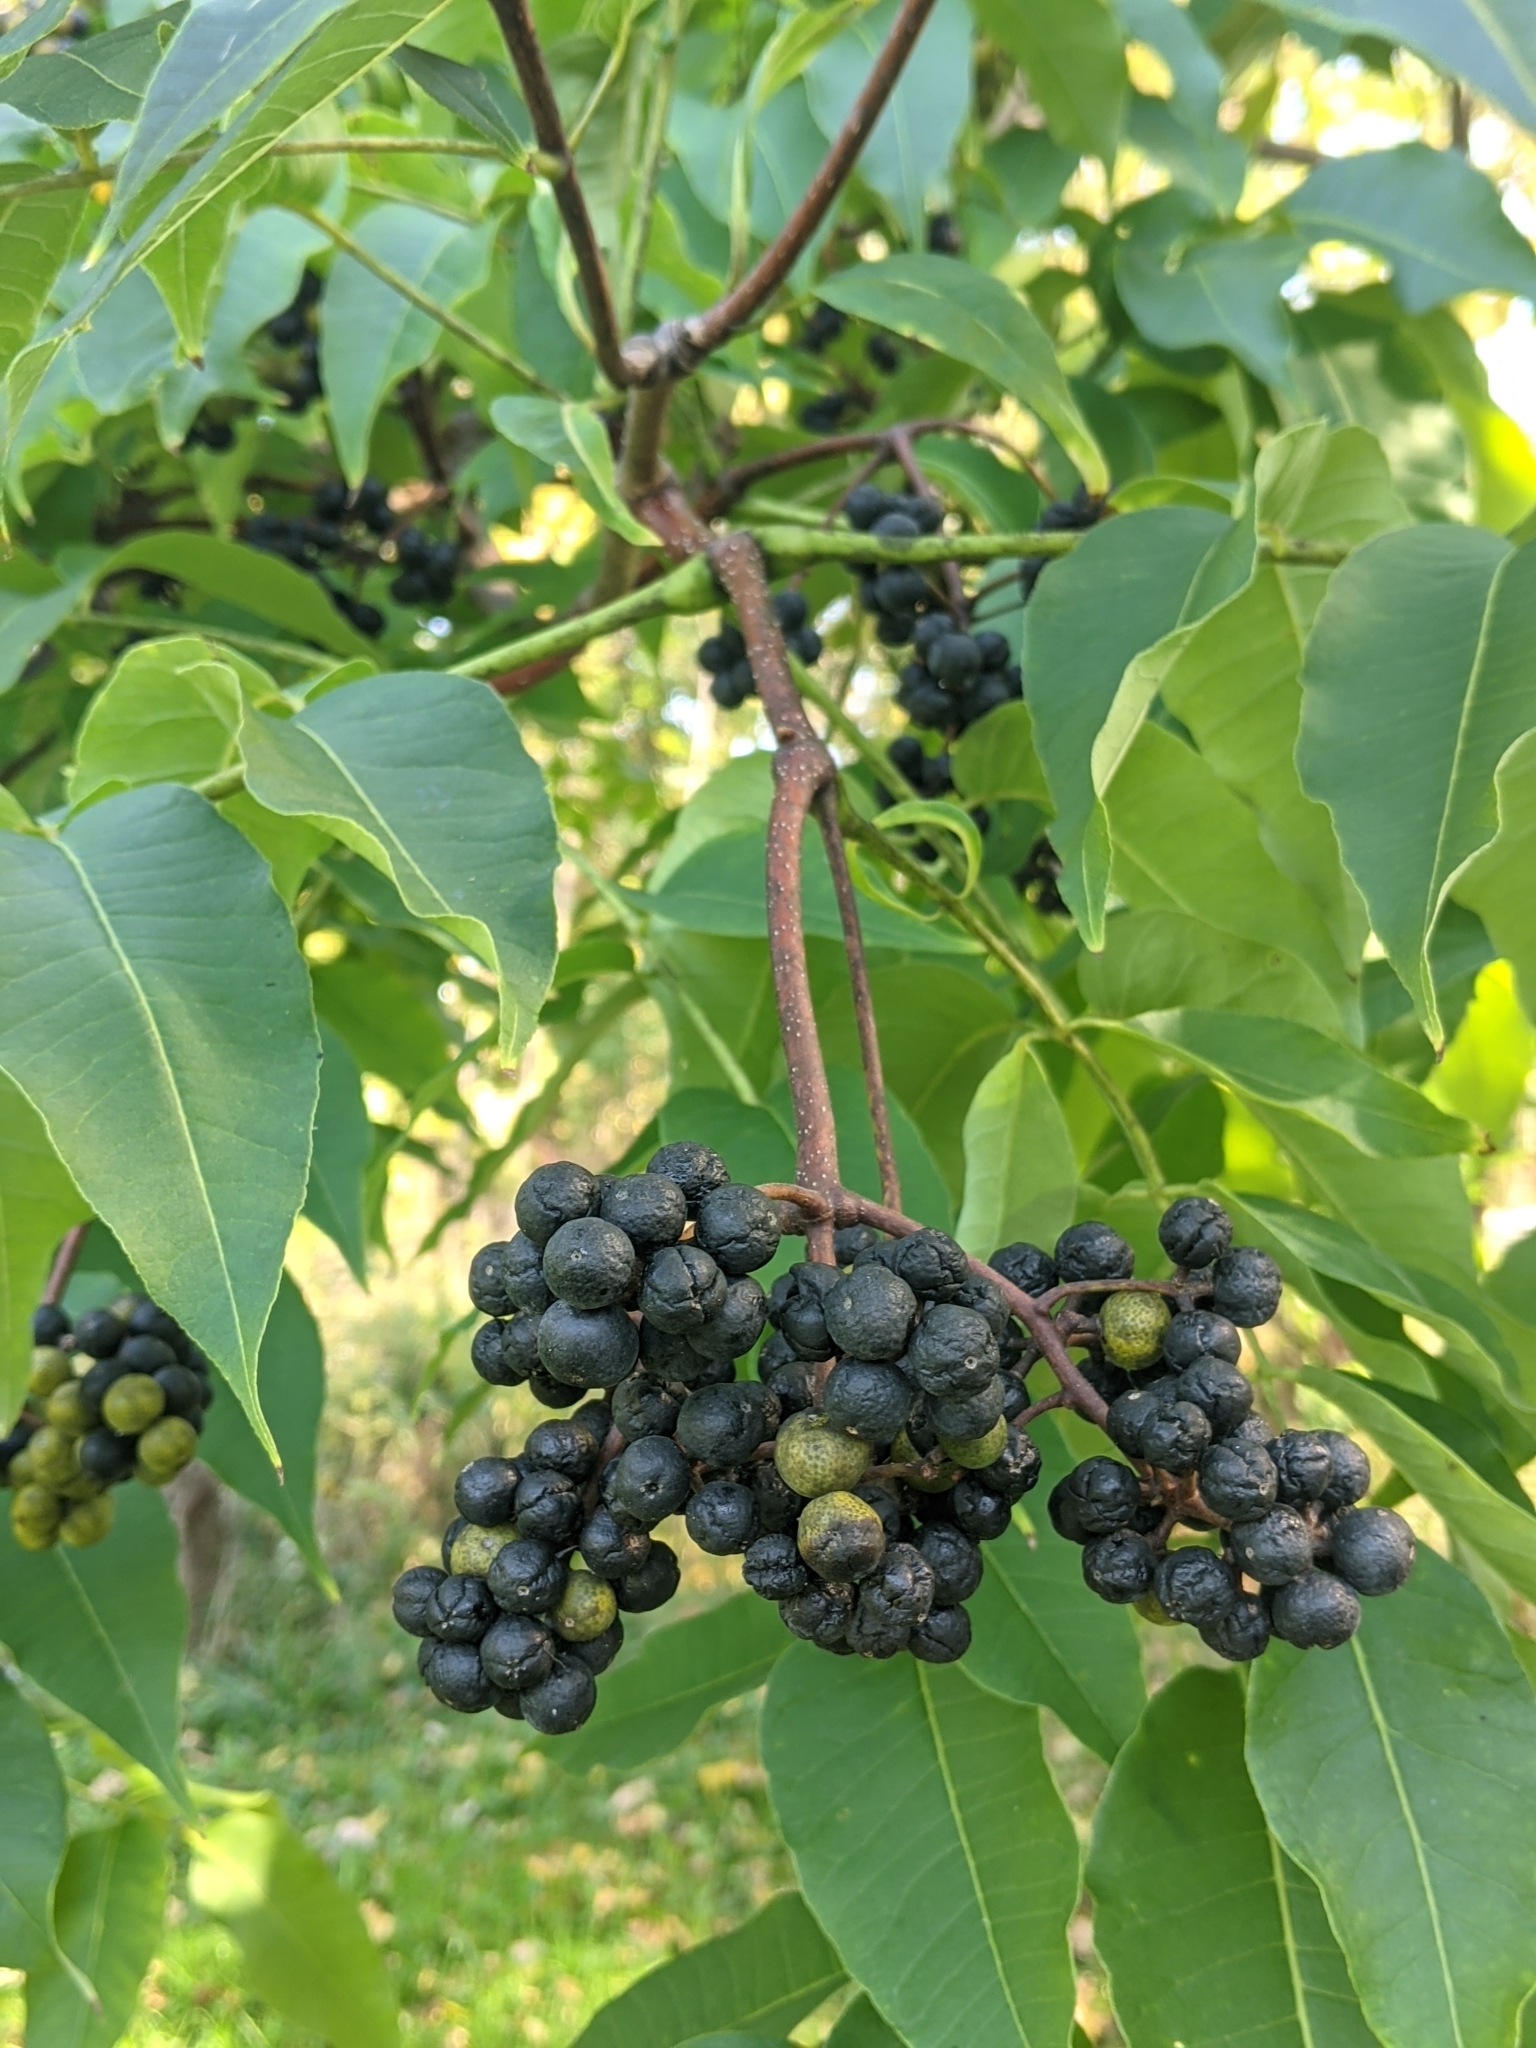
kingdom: Plantae
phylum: Tracheophyta
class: Magnoliopsida
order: Sapindales
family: Rutaceae
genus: Phellodendron
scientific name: Phellodendron amurense
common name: Amur corktree
